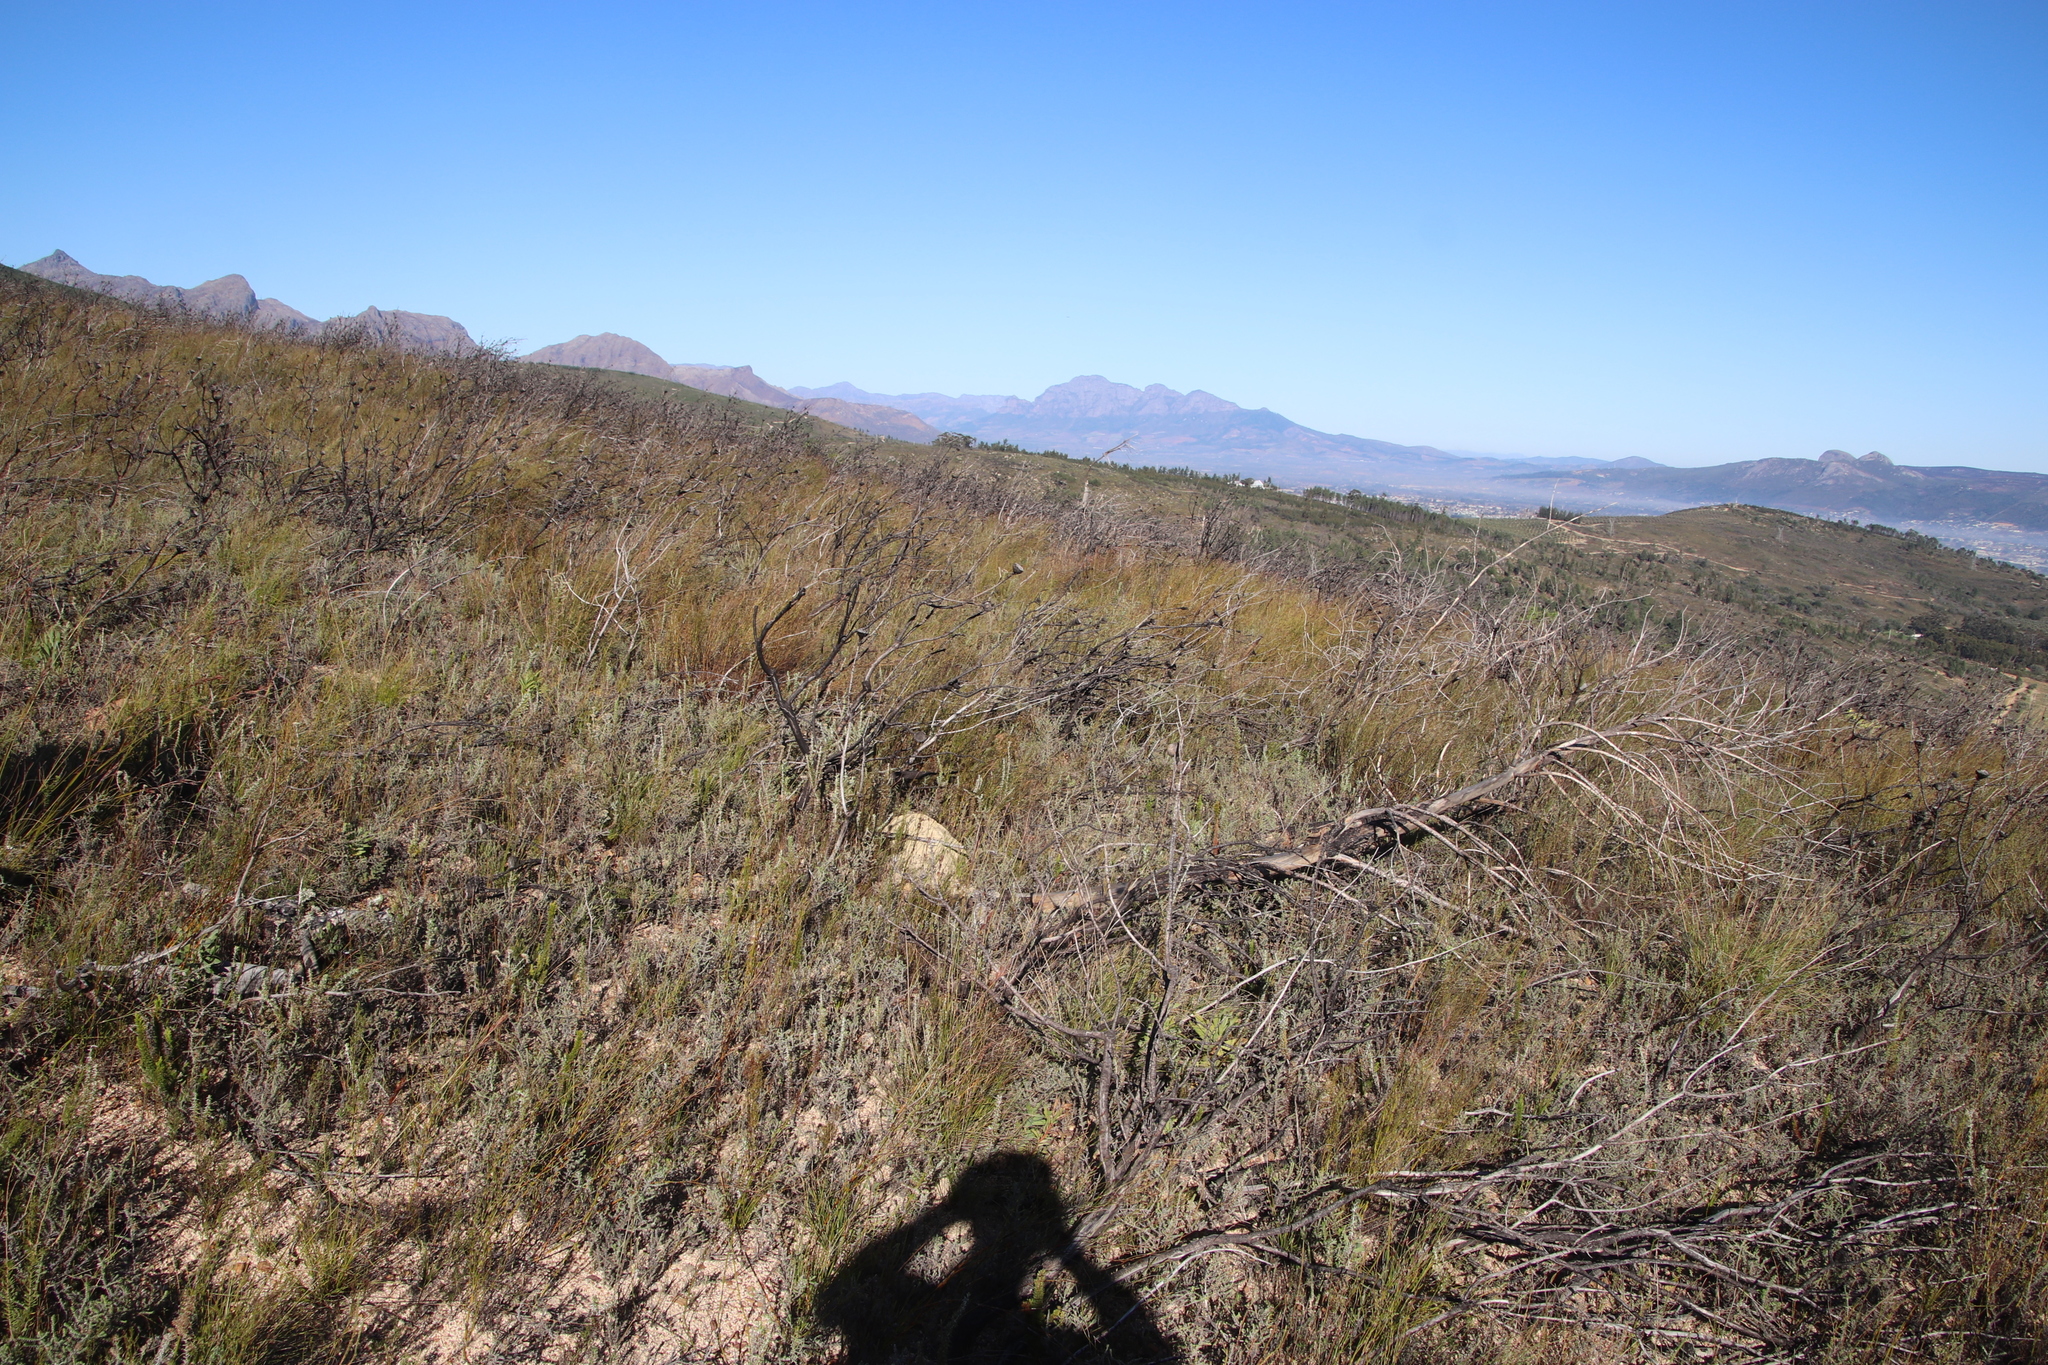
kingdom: Plantae
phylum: Tracheophyta
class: Liliopsida
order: Poales
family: Restionaceae
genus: Restio
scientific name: Restio gaudichaudianus
